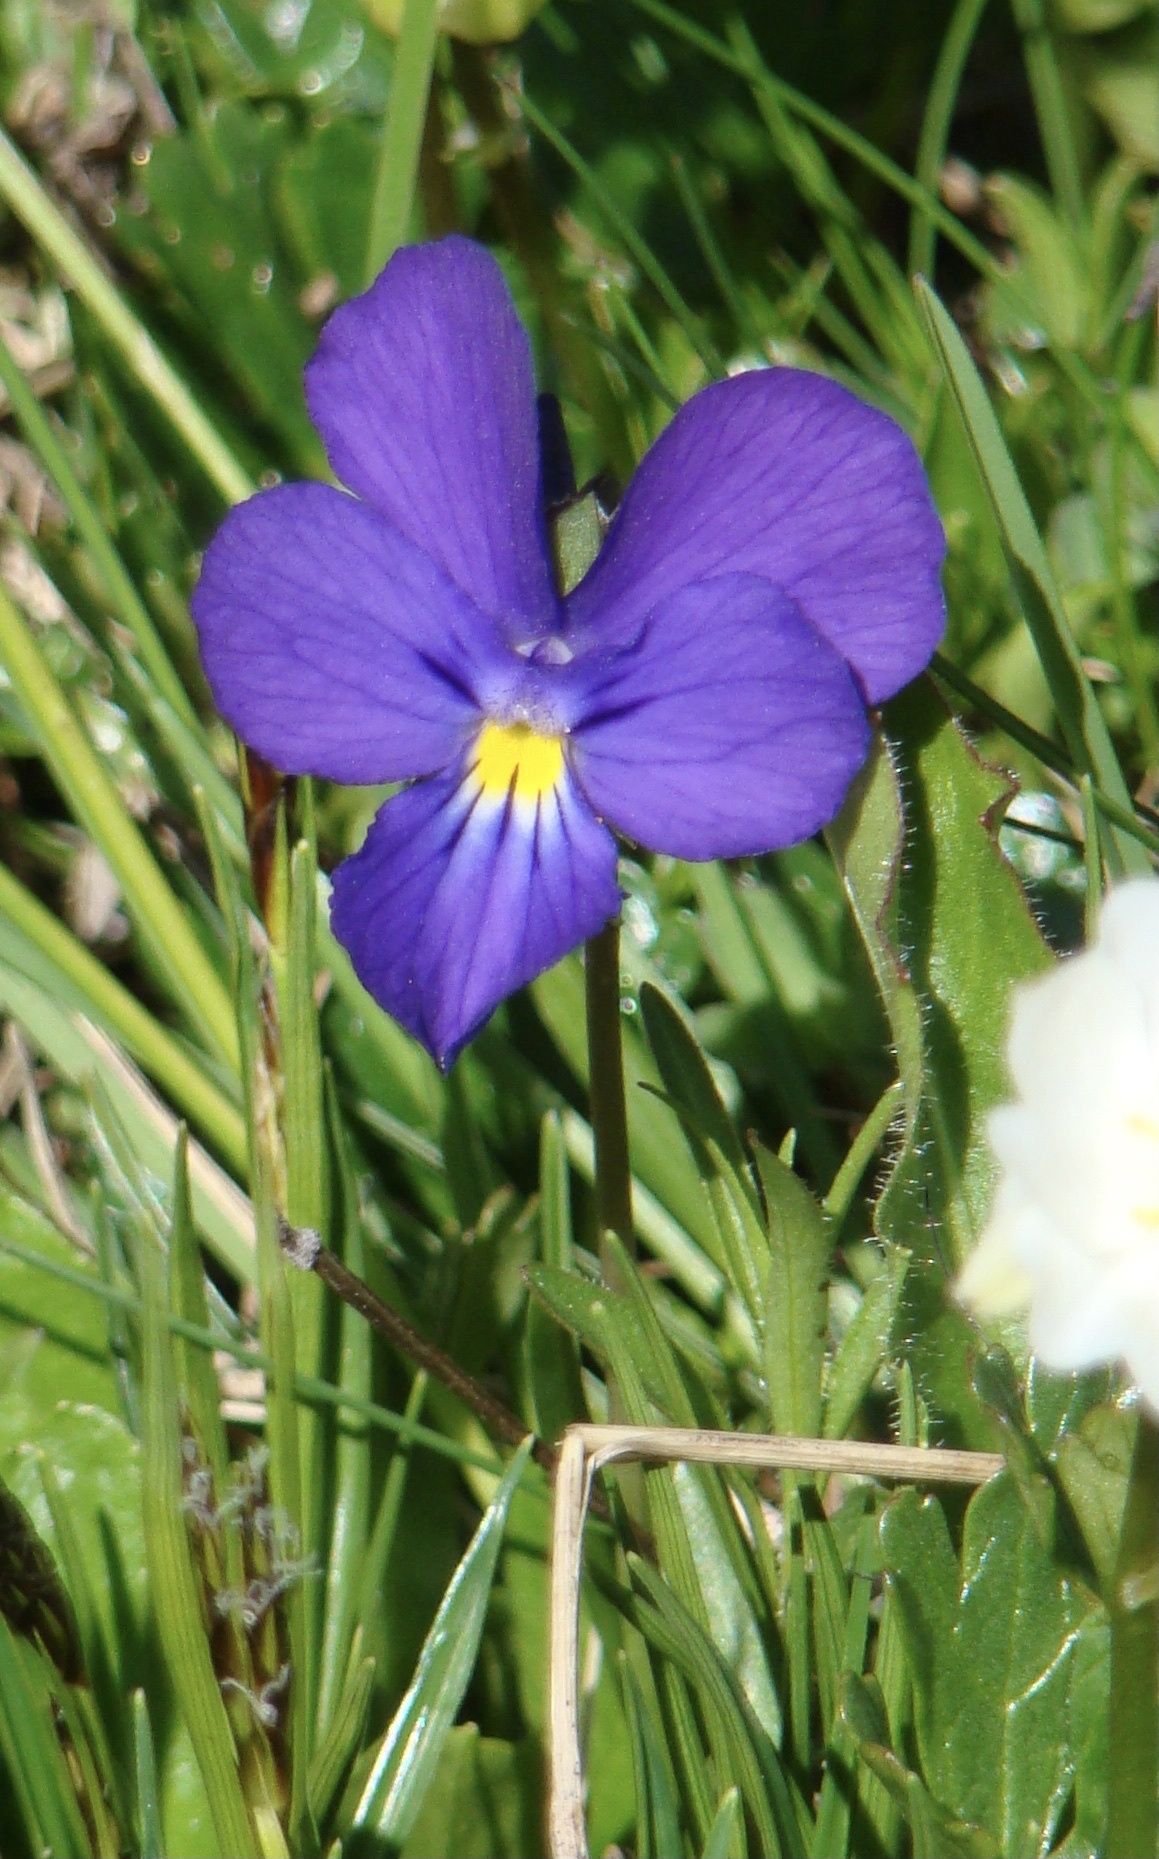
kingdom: Plantae
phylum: Tracheophyta
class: Magnoliopsida
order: Malpighiales
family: Violaceae
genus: Viola
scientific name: Viola calcarata
